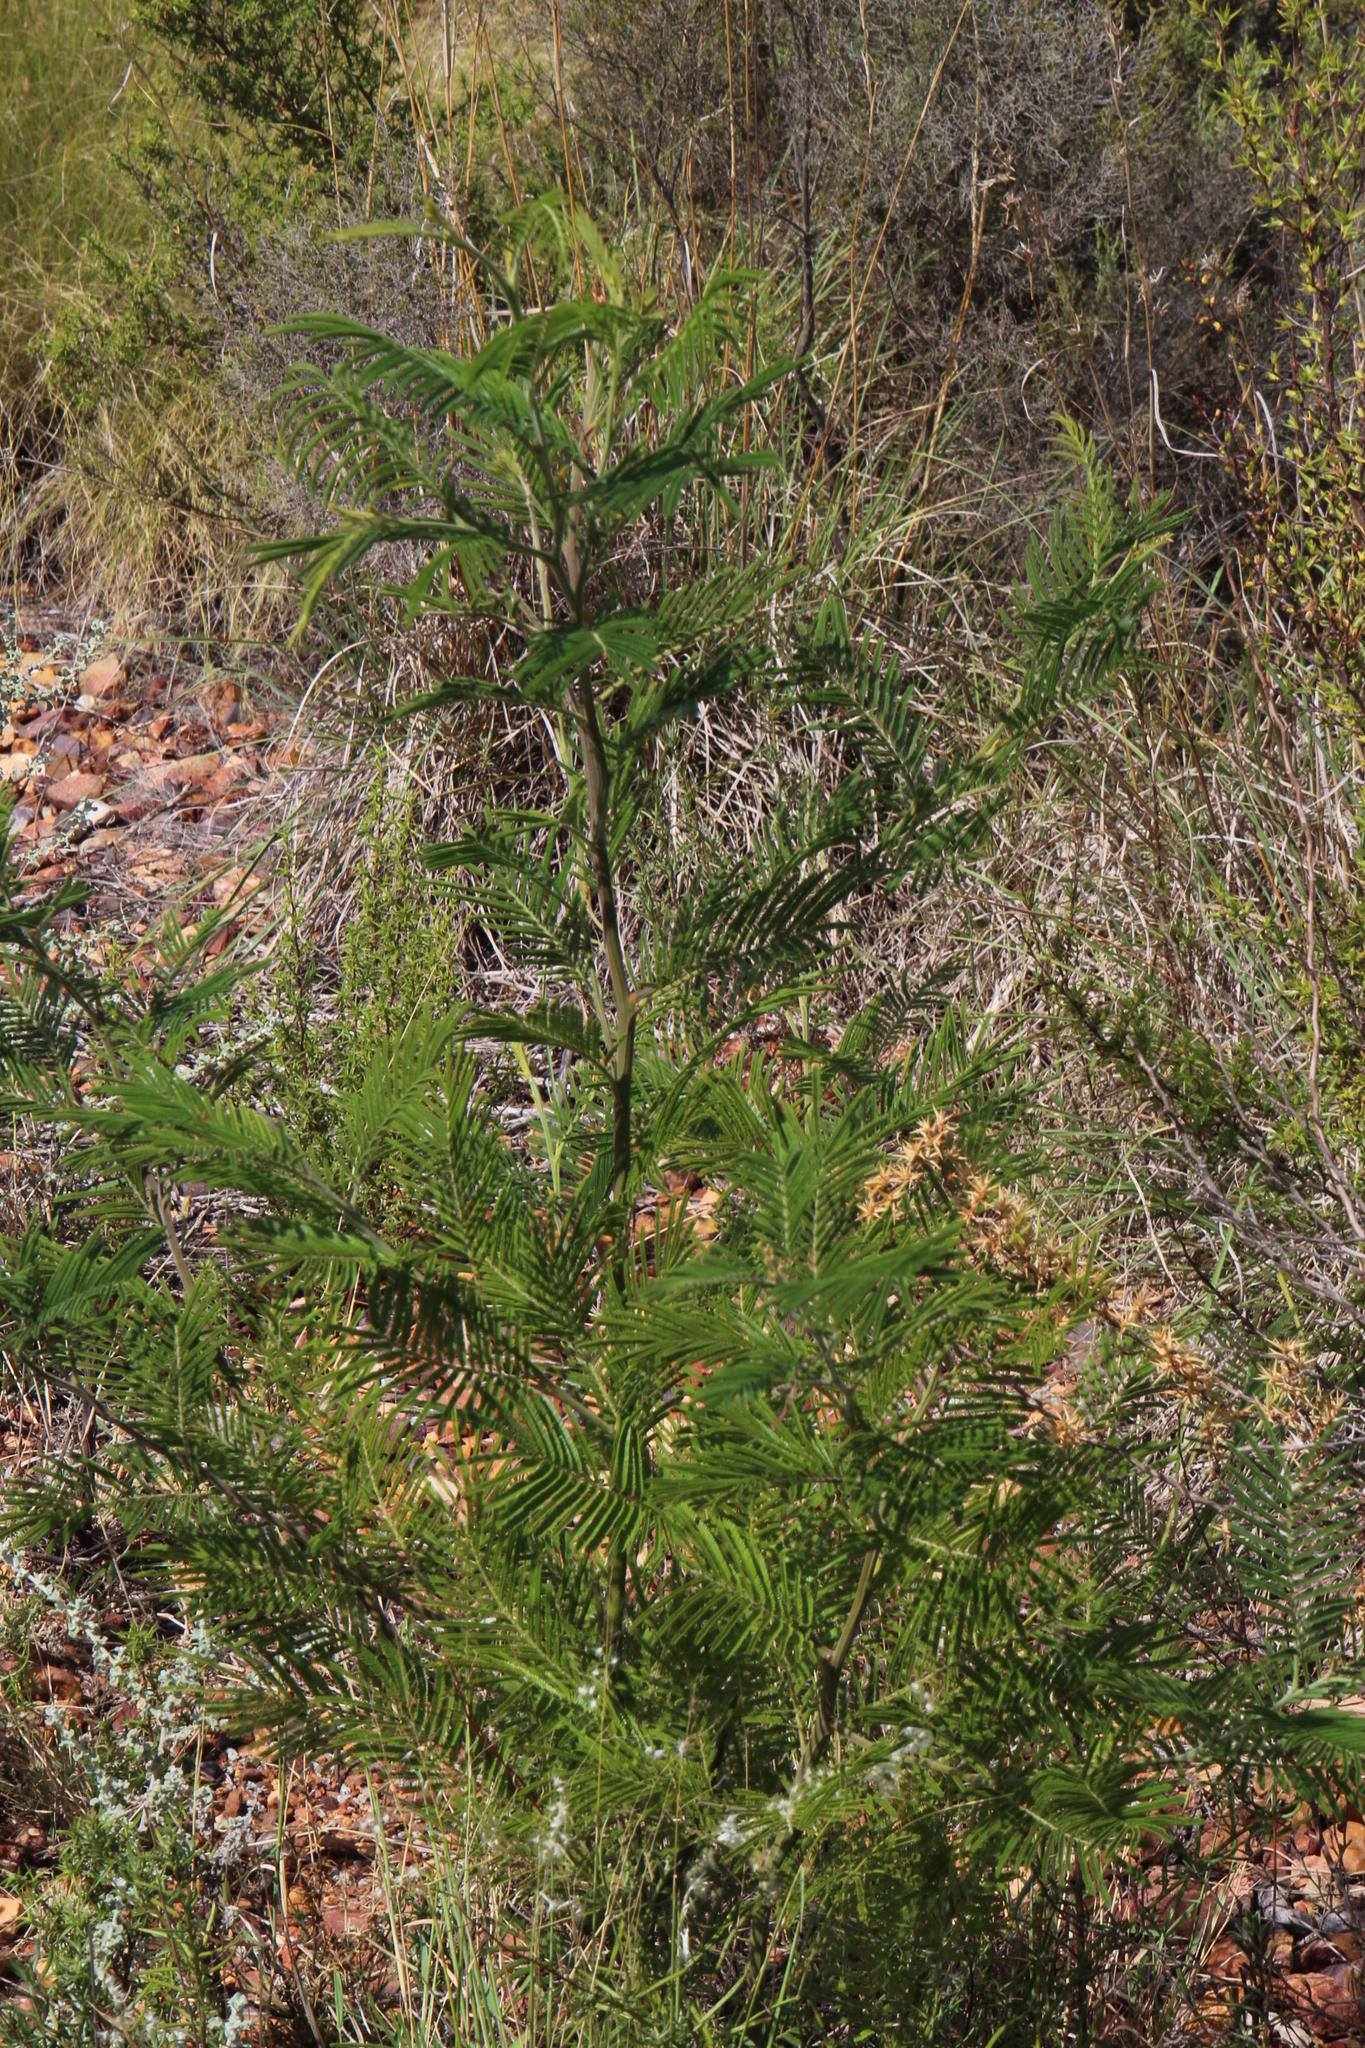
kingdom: Plantae
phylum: Tracheophyta
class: Magnoliopsida
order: Fabales
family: Fabaceae
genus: Acacia
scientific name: Acacia mearnsii
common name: Black wattle
